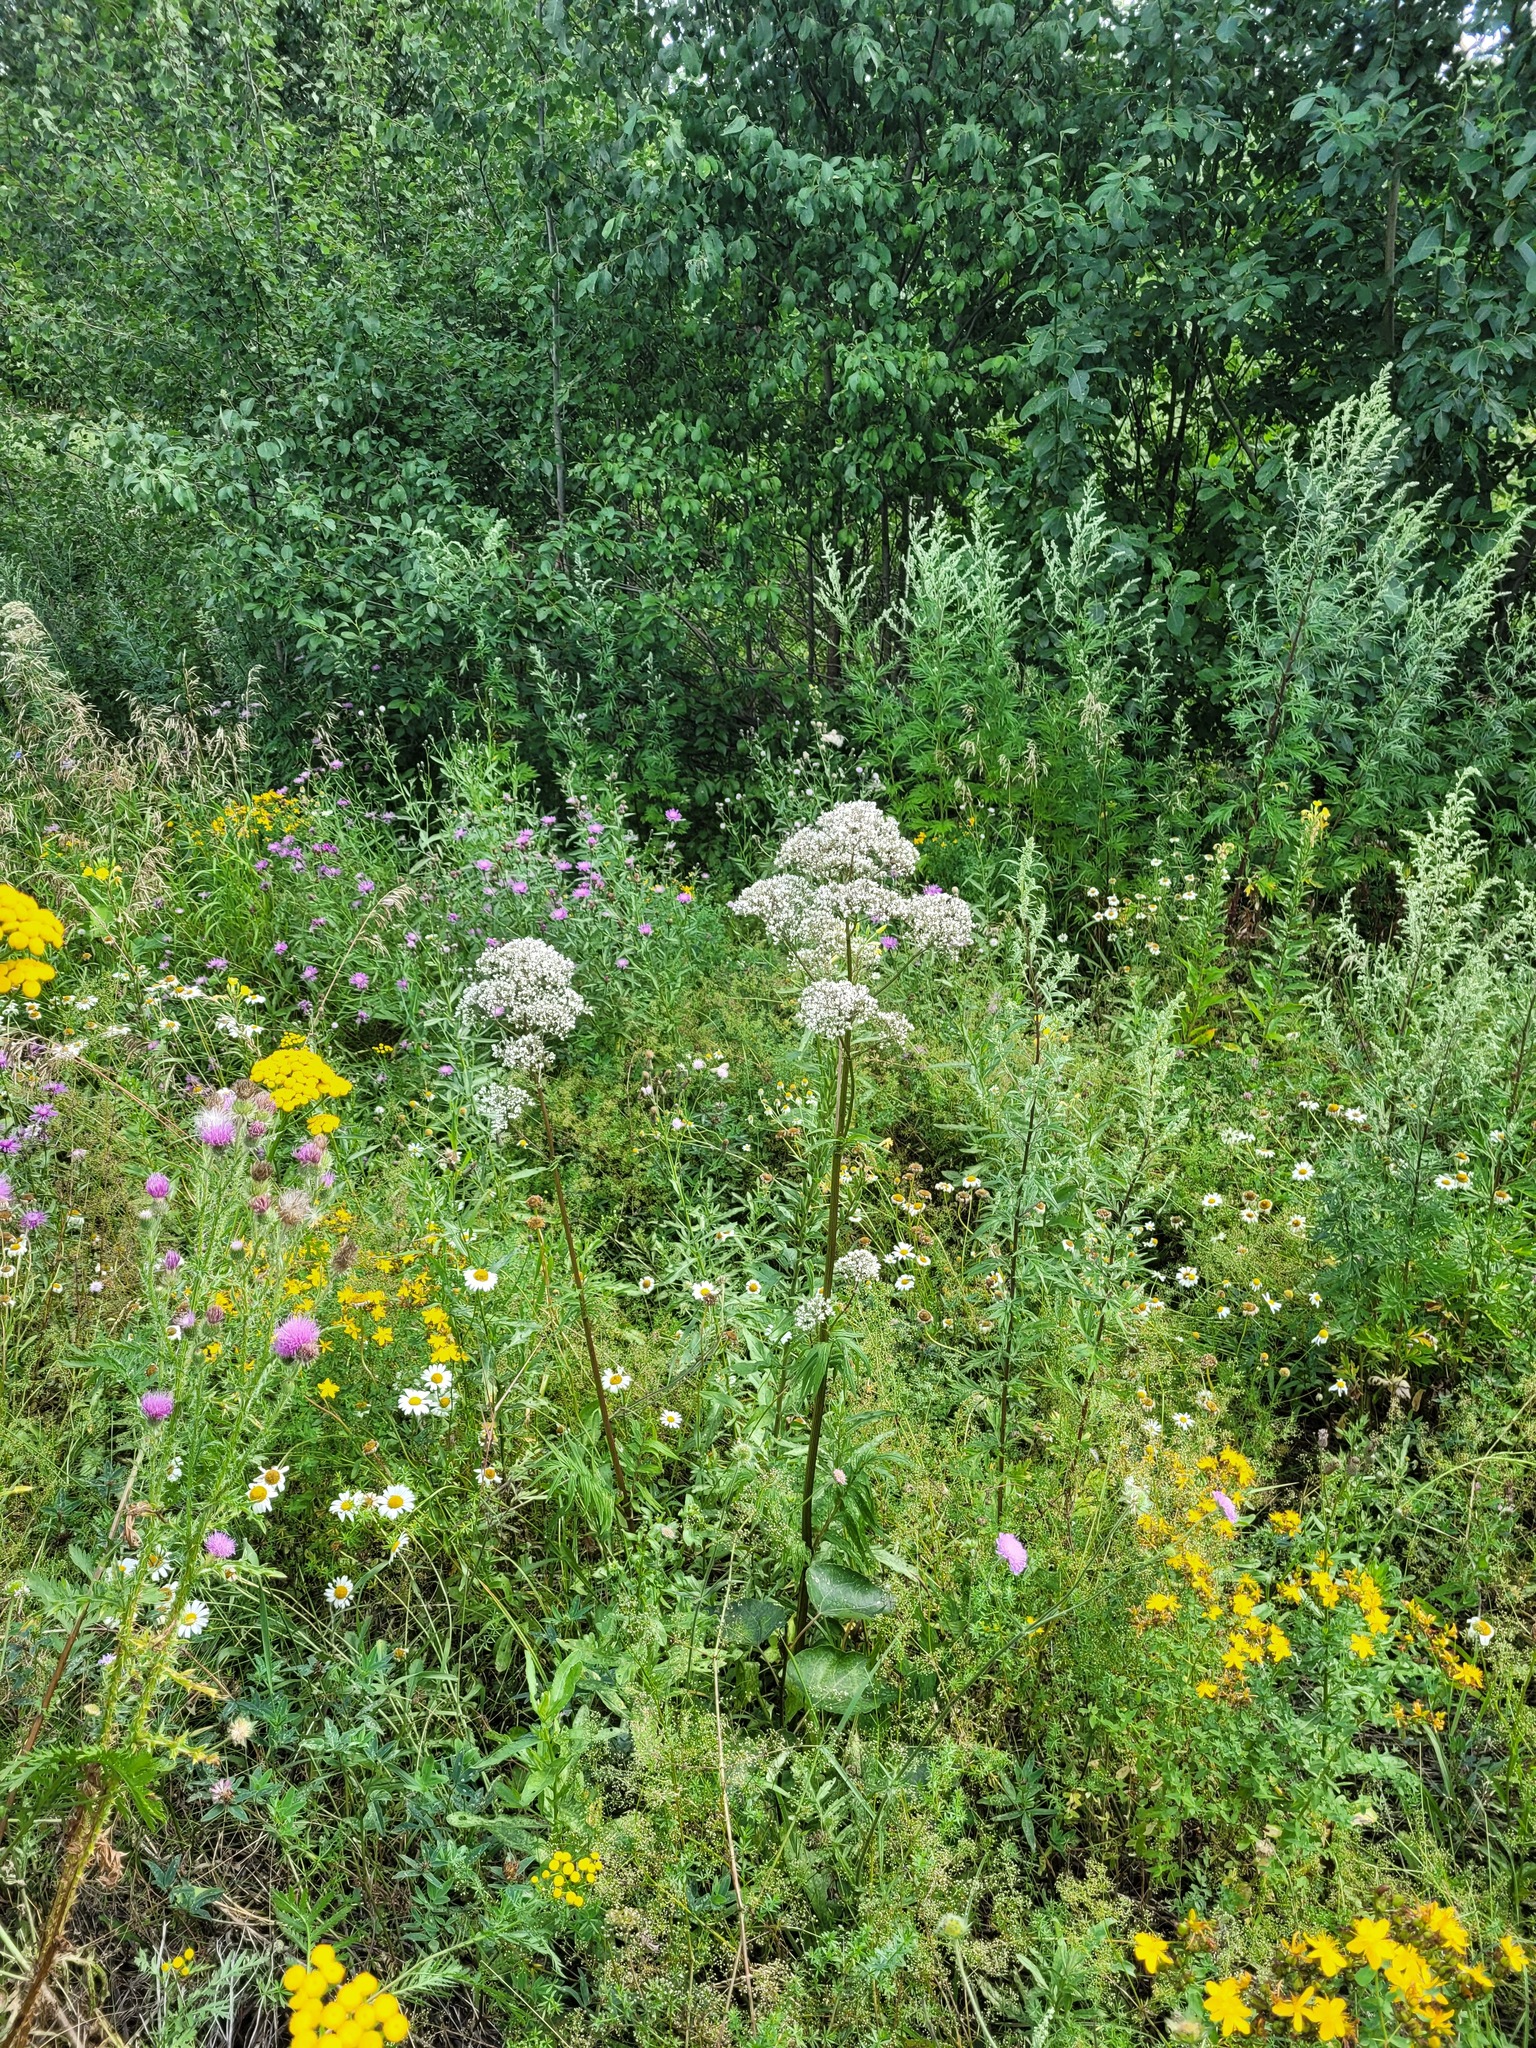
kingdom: Plantae
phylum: Tracheophyta
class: Magnoliopsida
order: Dipsacales
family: Caprifoliaceae
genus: Valeriana
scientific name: Valeriana officinalis
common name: Common valerian
